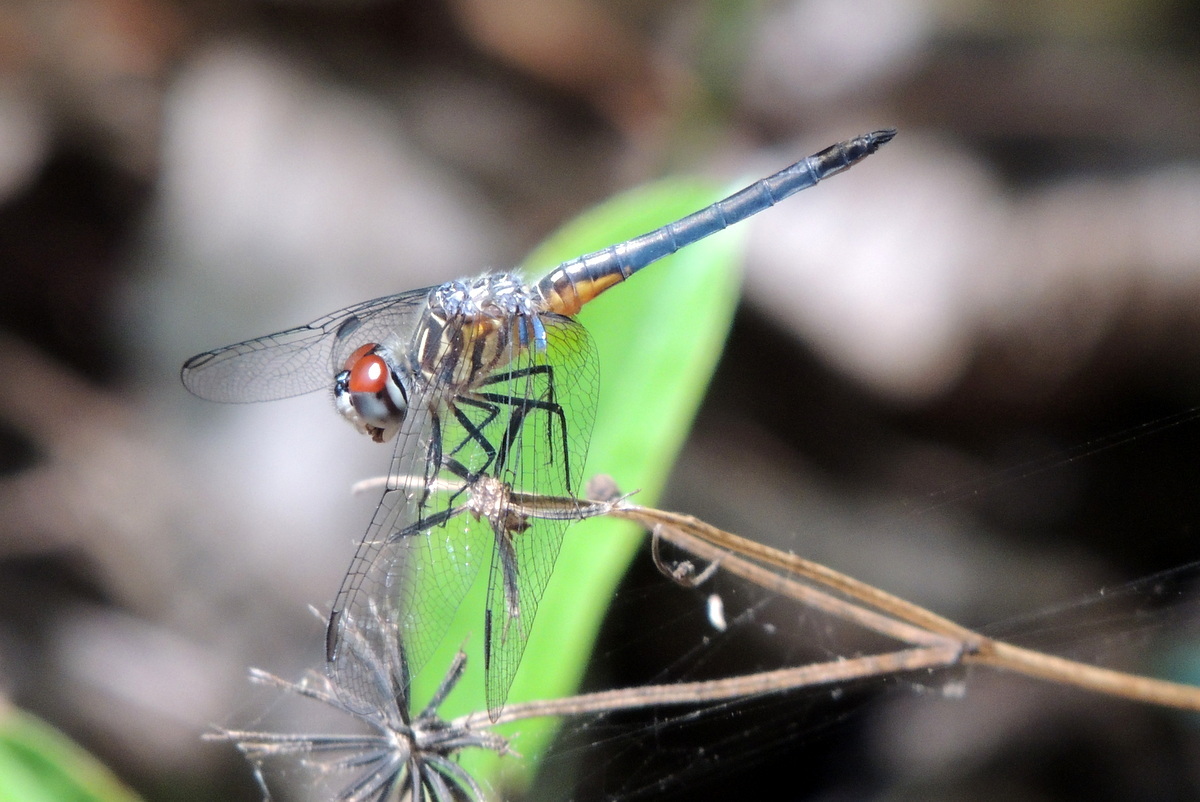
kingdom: Animalia
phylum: Arthropoda
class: Insecta
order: Odonata
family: Libellulidae
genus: Pachydiplax
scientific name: Pachydiplax longipennis
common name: Blue dasher
